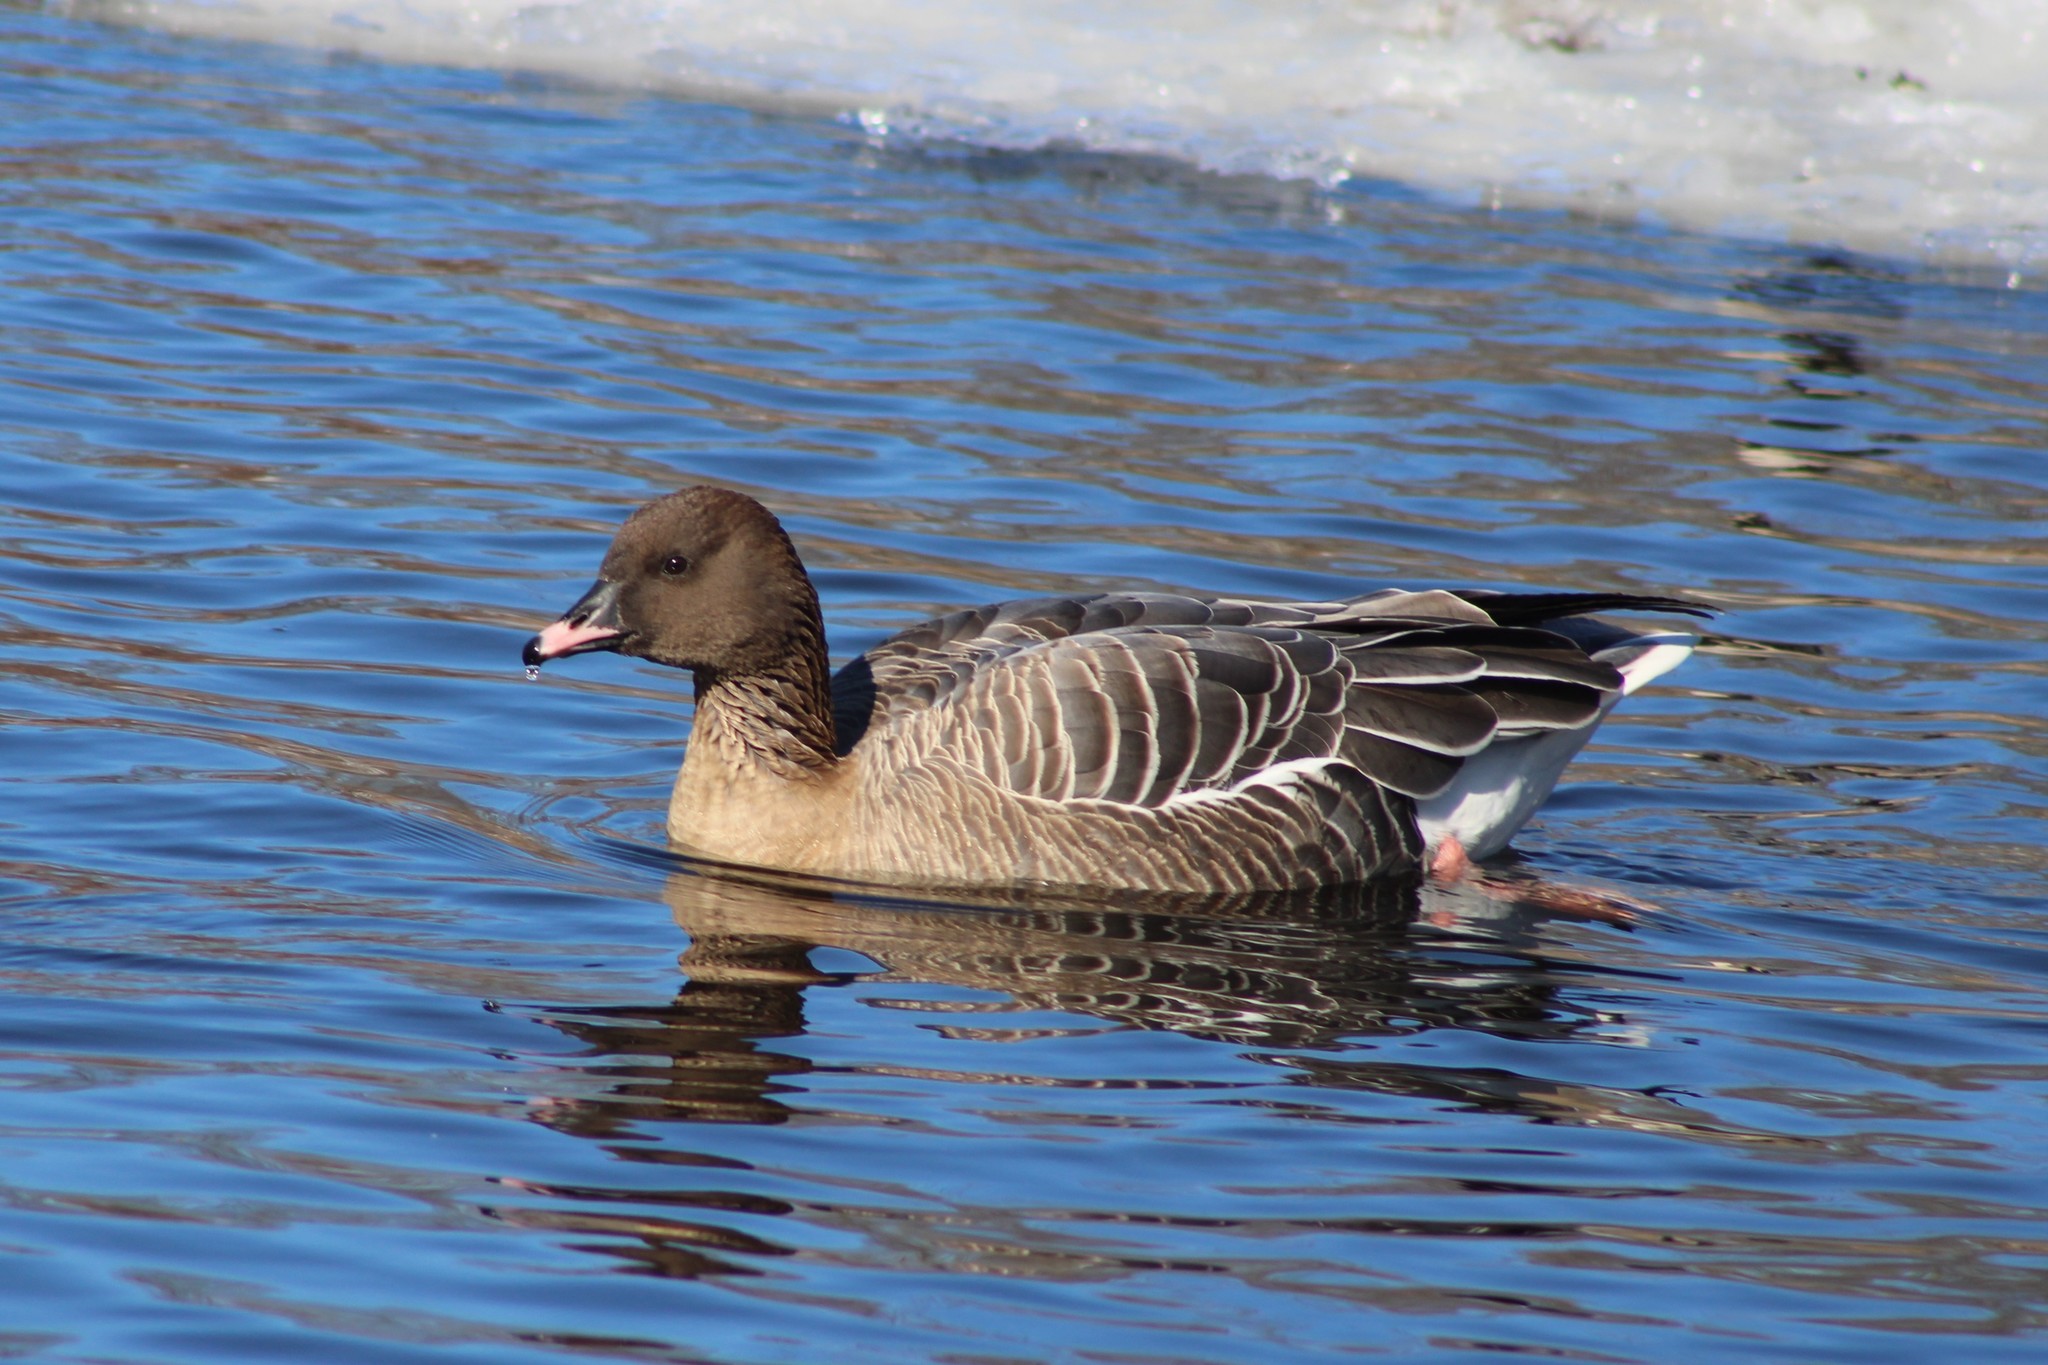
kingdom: Animalia
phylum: Chordata
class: Aves
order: Anseriformes
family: Anatidae
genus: Anser
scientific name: Anser brachyrhynchus
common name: Pink-footed goose
